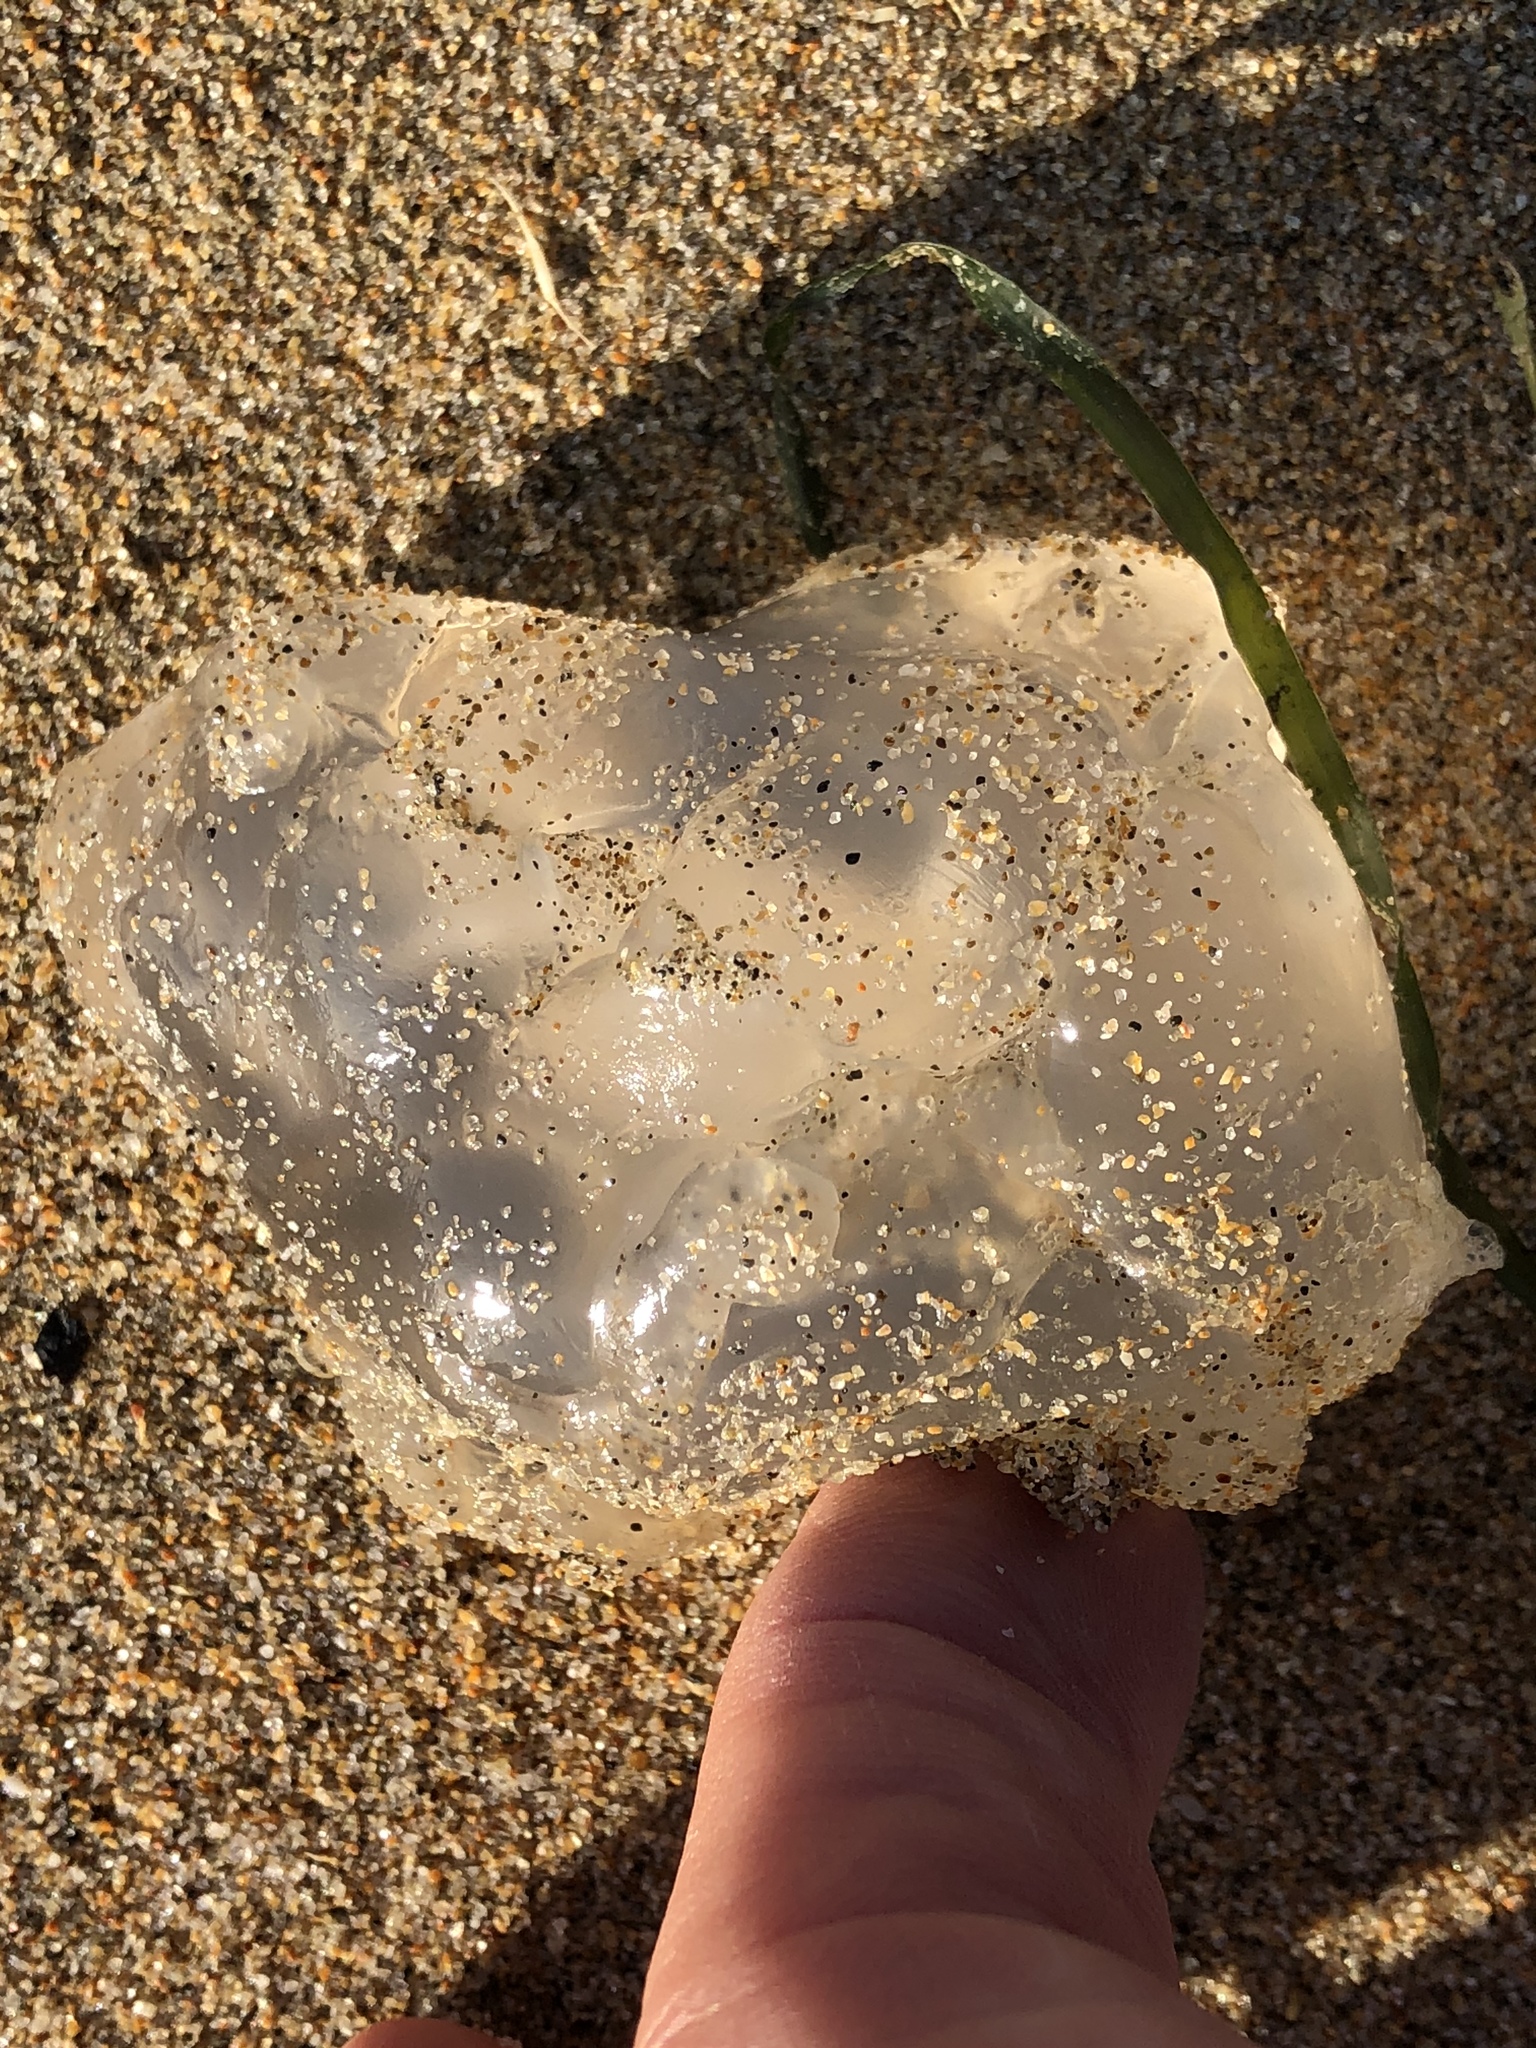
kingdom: Animalia
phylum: Cnidaria
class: Scyphozoa
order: Semaeostomeae
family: Ulmaridae
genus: Aurelia
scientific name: Aurelia labiata
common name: Pacific moon jelly
